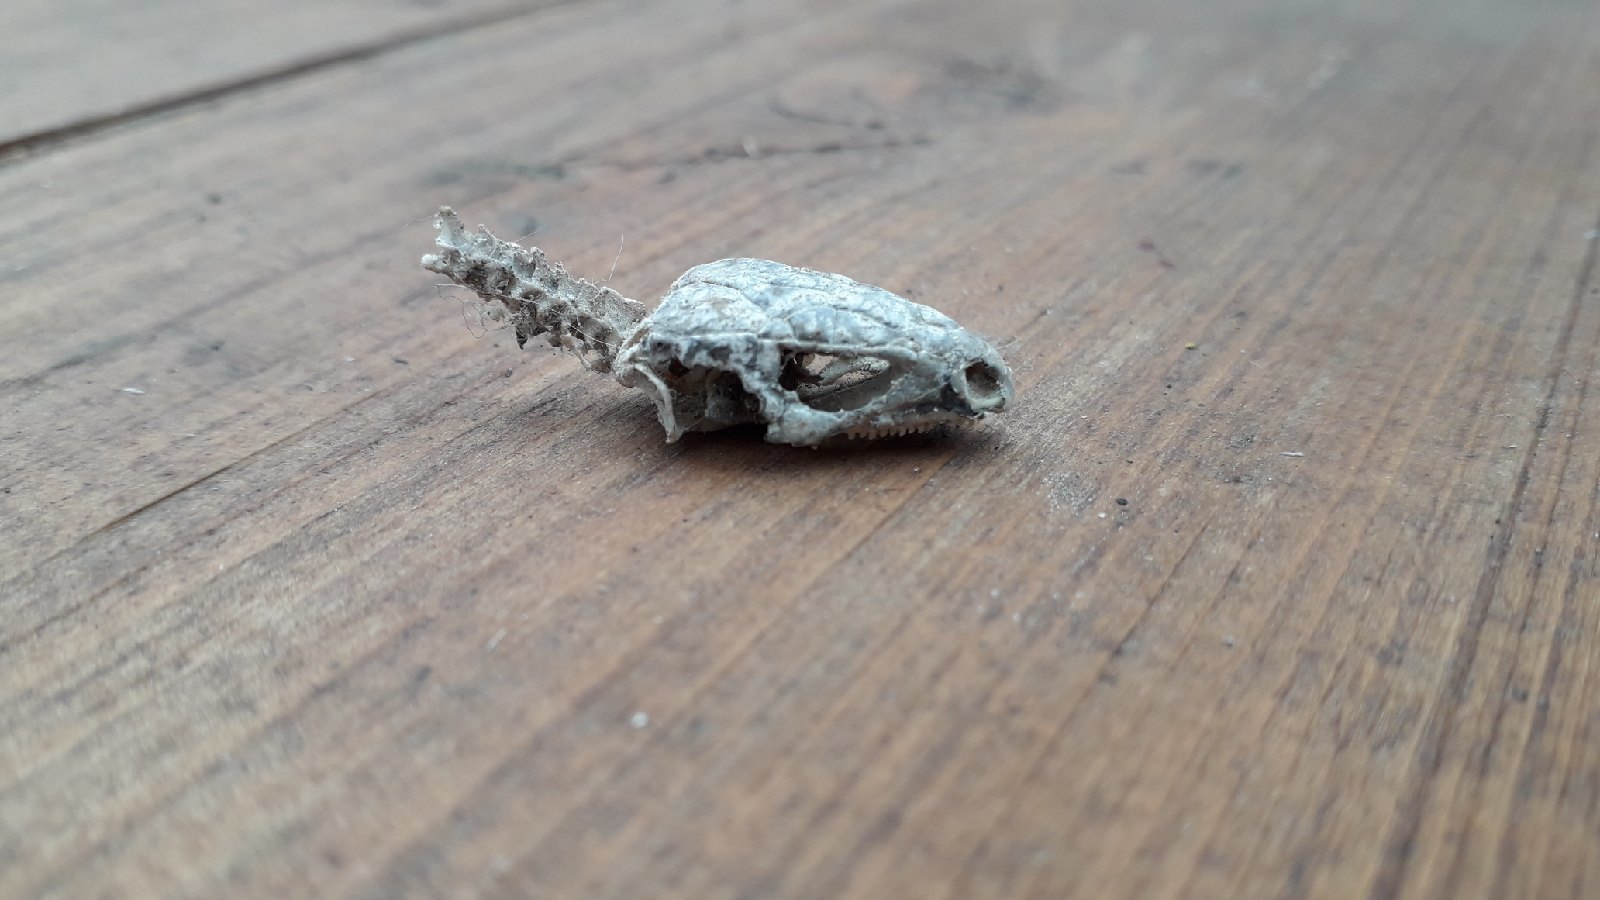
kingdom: Animalia
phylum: Chordata
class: Squamata
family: Lacertidae
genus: Lacerta
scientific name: Lacerta agilis
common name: Sand lizard
